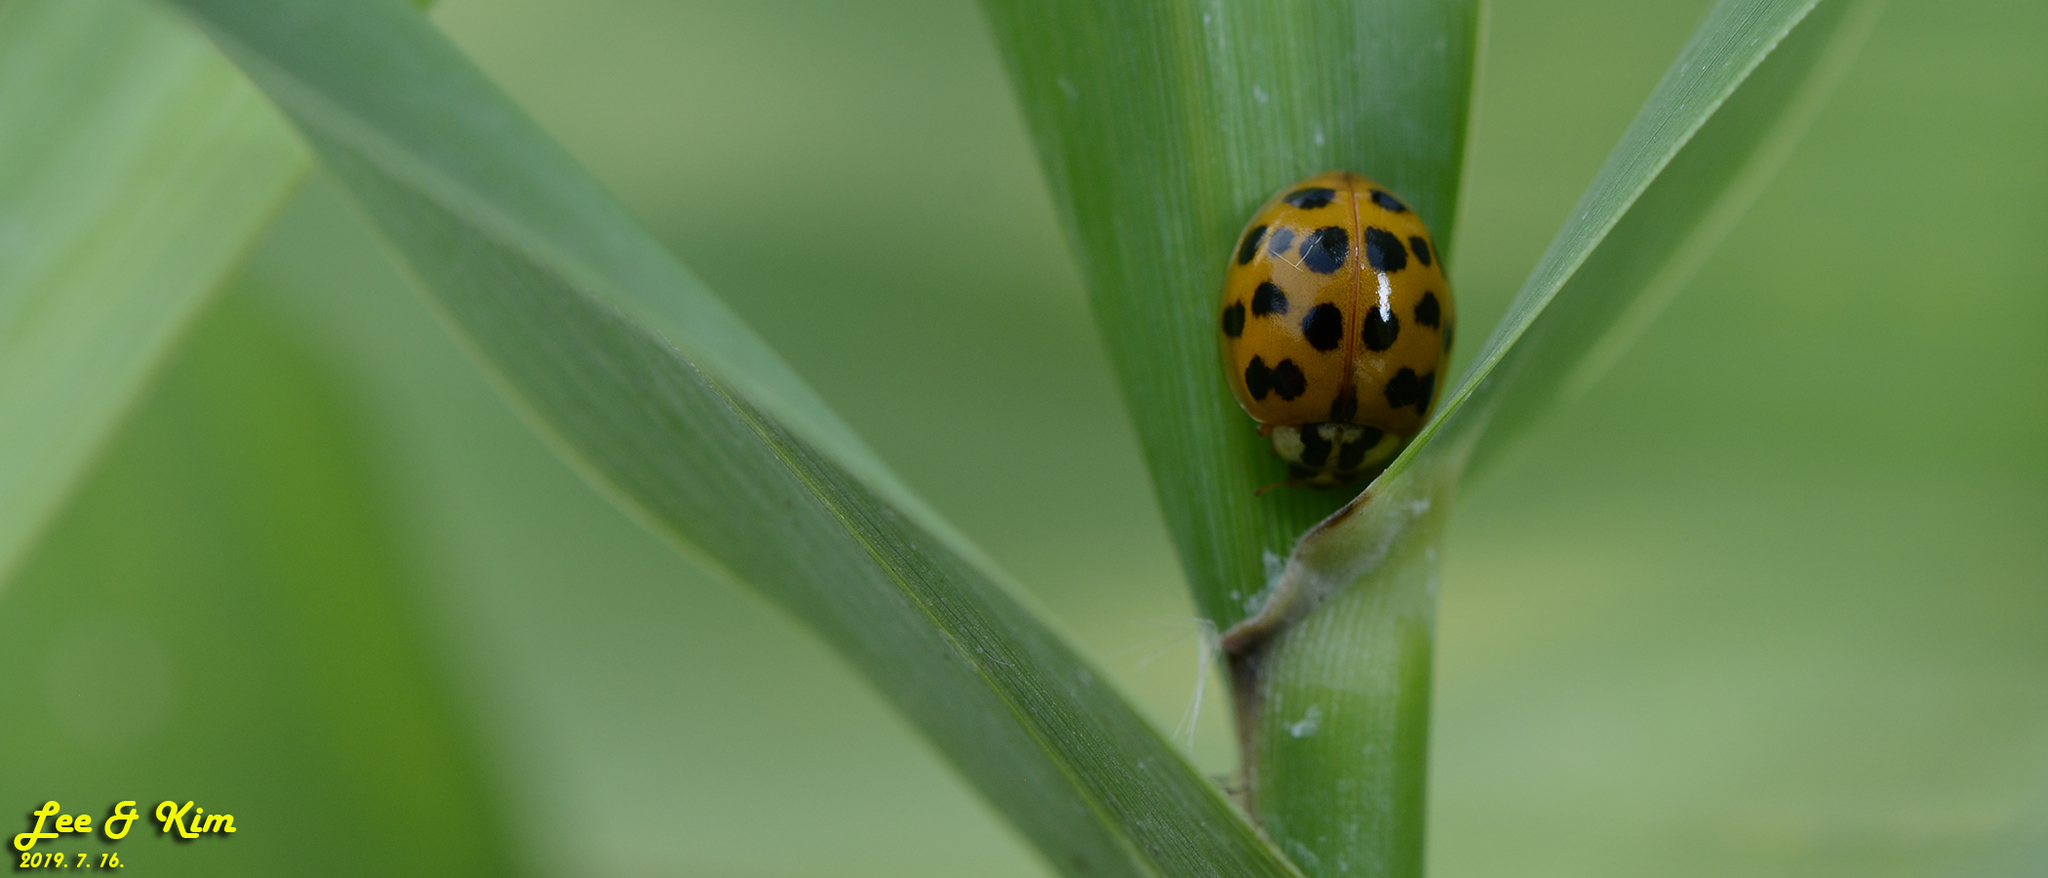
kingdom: Animalia
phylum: Arthropoda
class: Insecta
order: Coleoptera
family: Coccinellidae
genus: Harmonia
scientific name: Harmonia axyridis
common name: Harlequin ladybird
